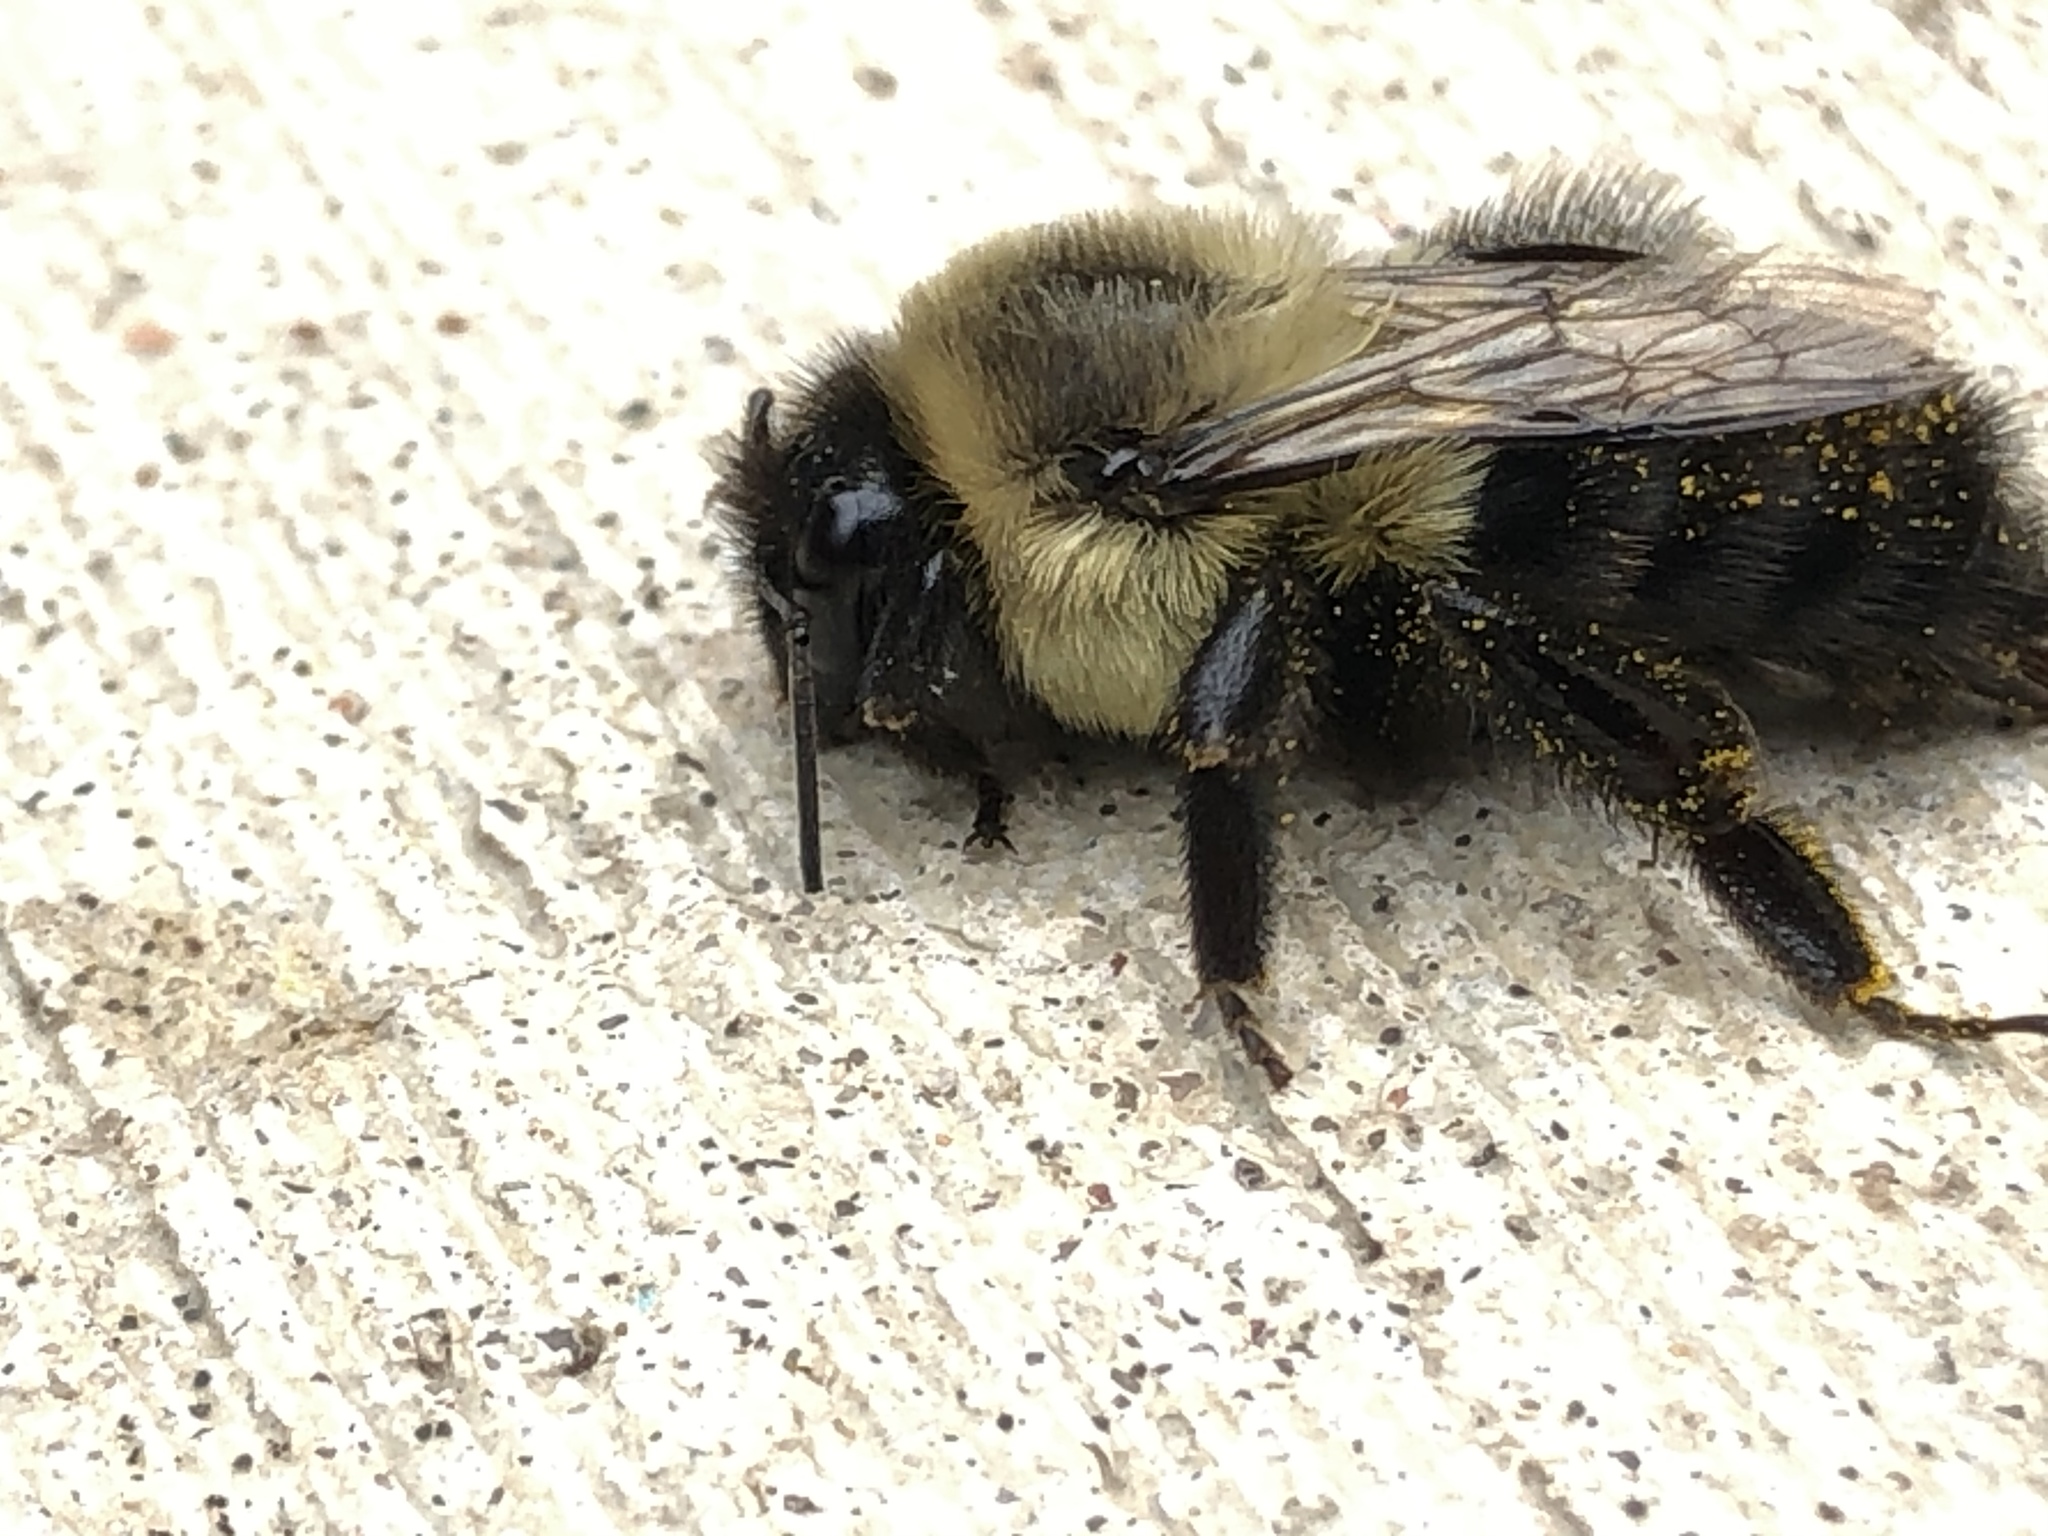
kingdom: Animalia
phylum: Arthropoda
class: Insecta
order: Hymenoptera
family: Apidae
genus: Bombus
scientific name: Bombus impatiens
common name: Common eastern bumble bee
